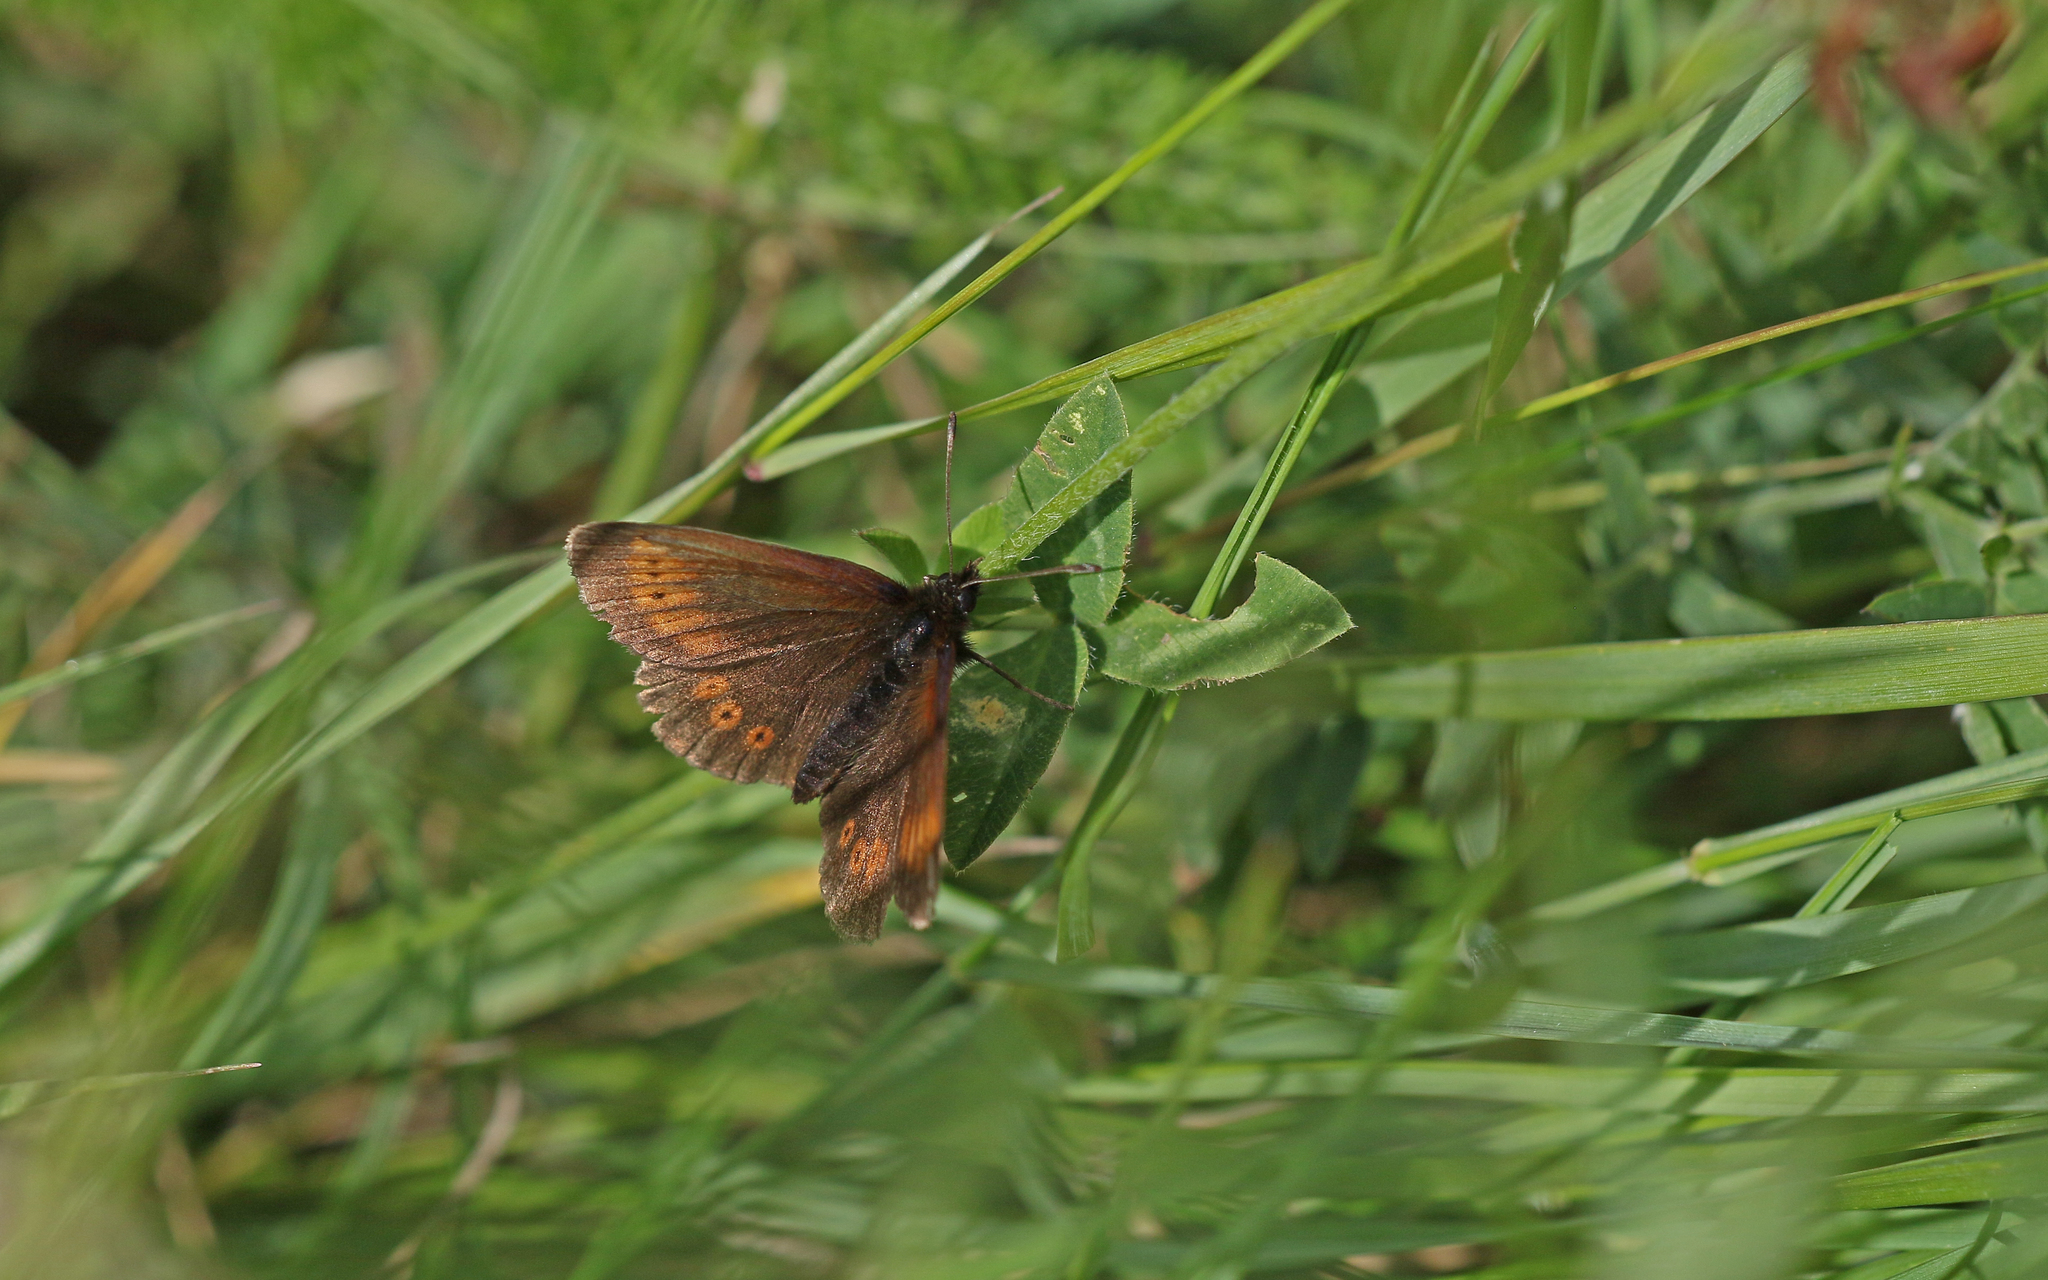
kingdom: Animalia
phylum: Arthropoda
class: Insecta
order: Lepidoptera
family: Nymphalidae
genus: Erebia
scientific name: Erebia melampus
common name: Lesser mountain ringlet
